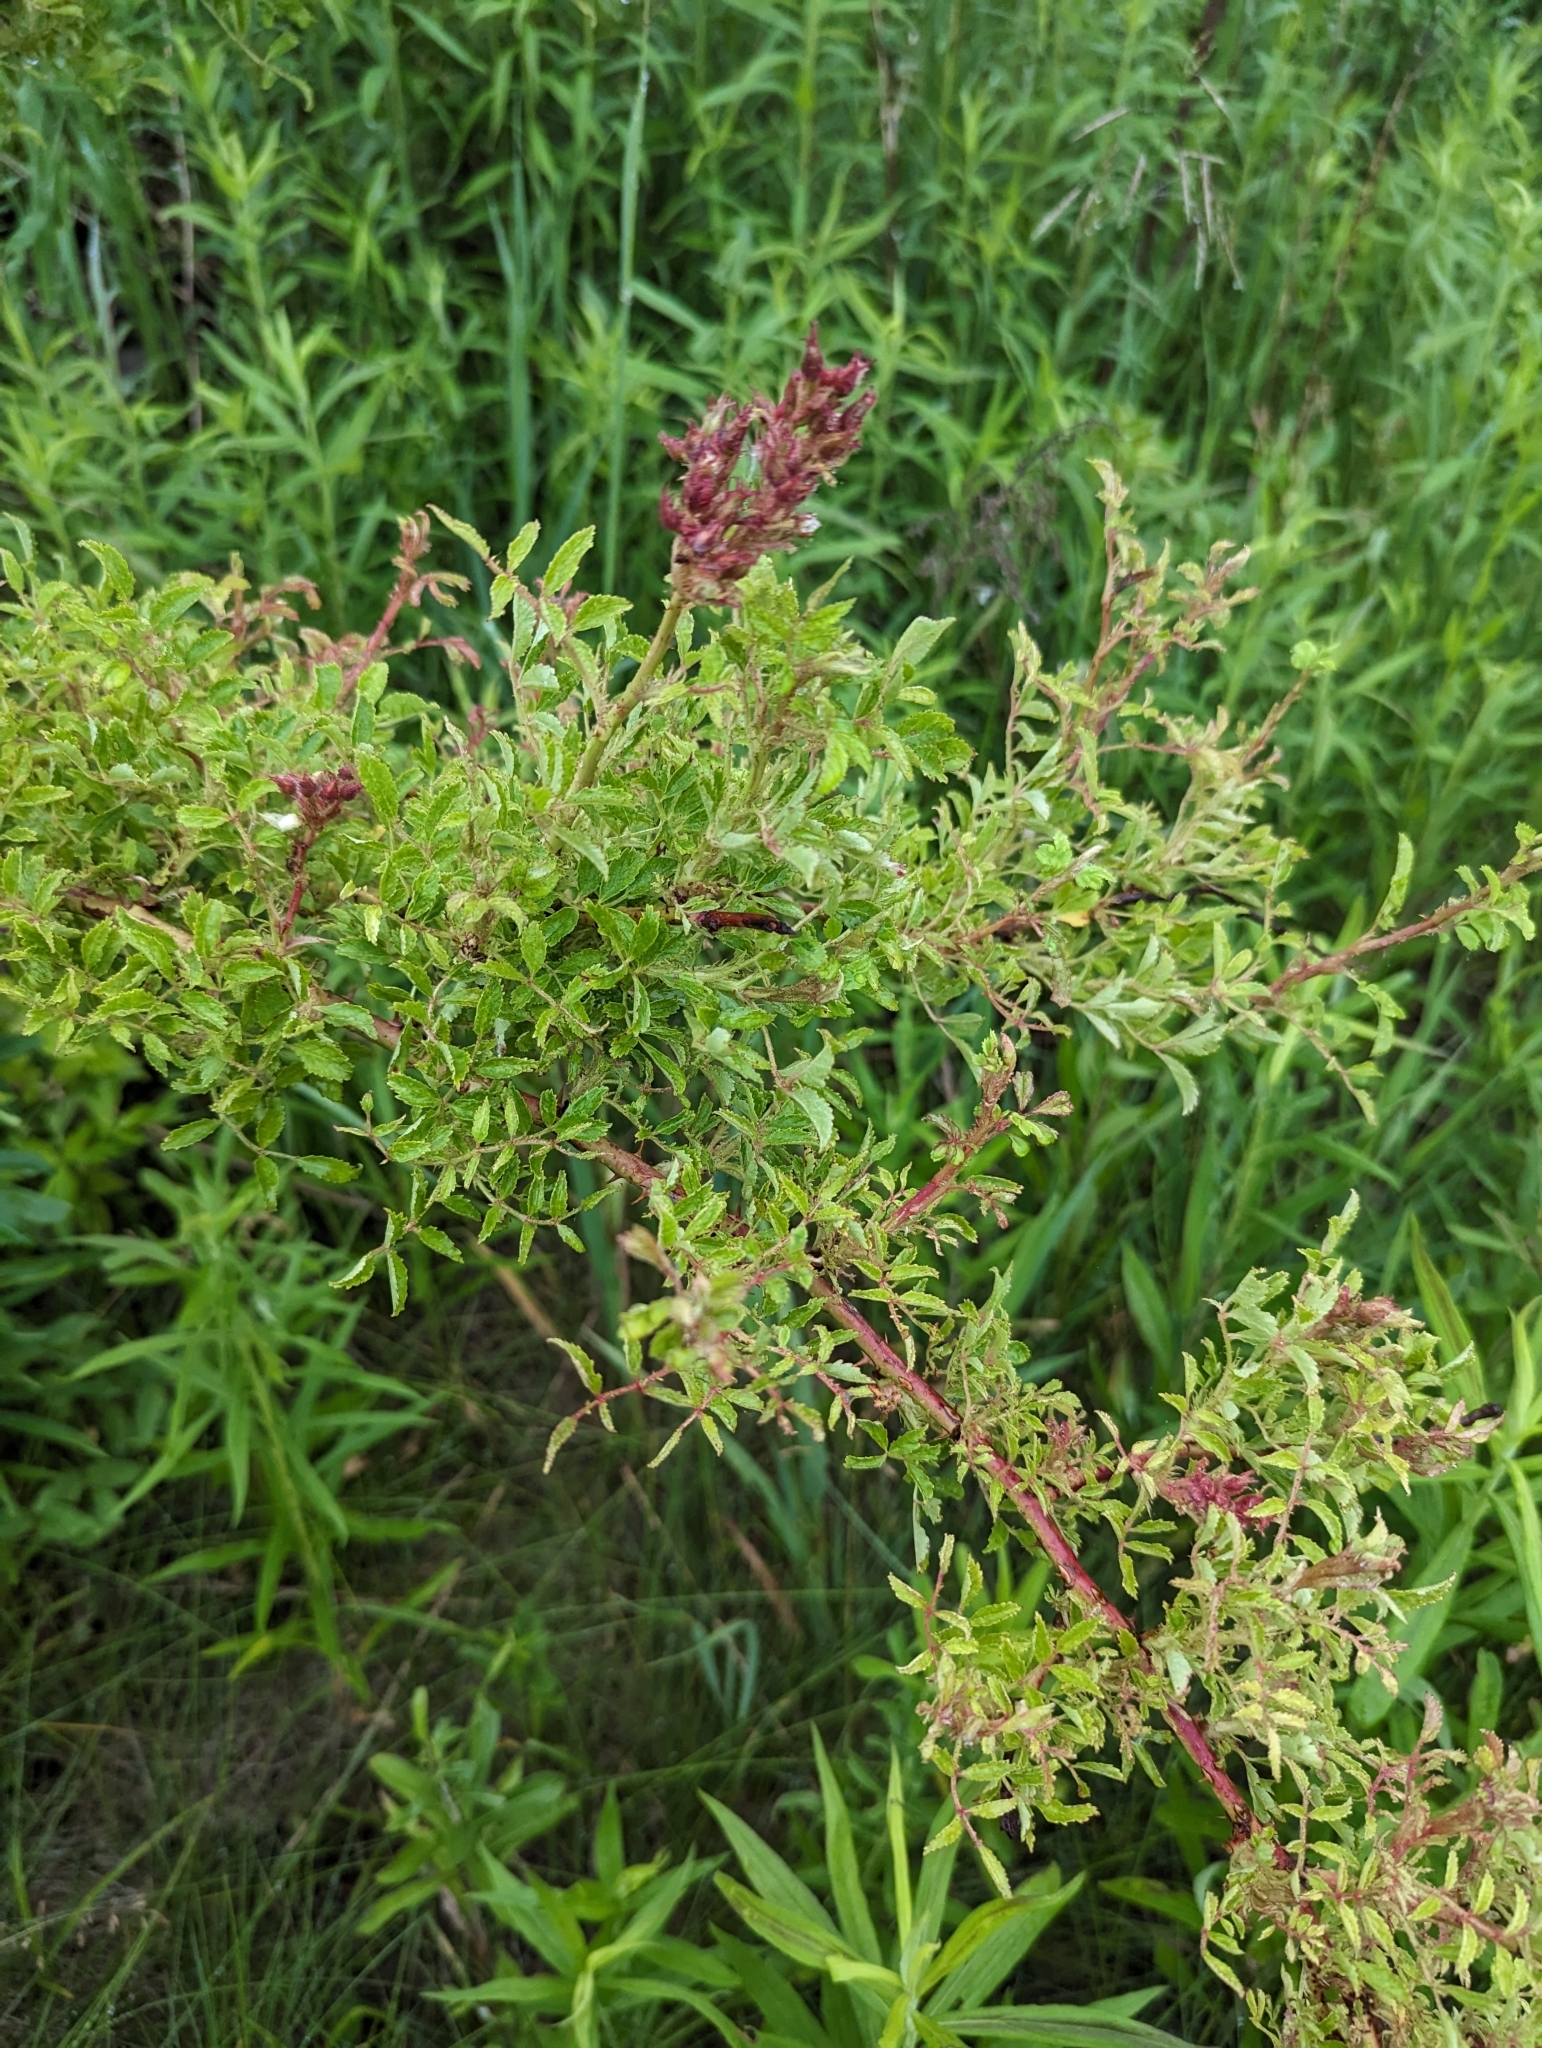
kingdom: Viruses
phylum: Negarnaviricota
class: Ellioviricetes
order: Bunyavirales
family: Fimoviridae
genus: Emaravirus
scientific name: Emaravirus rosae
